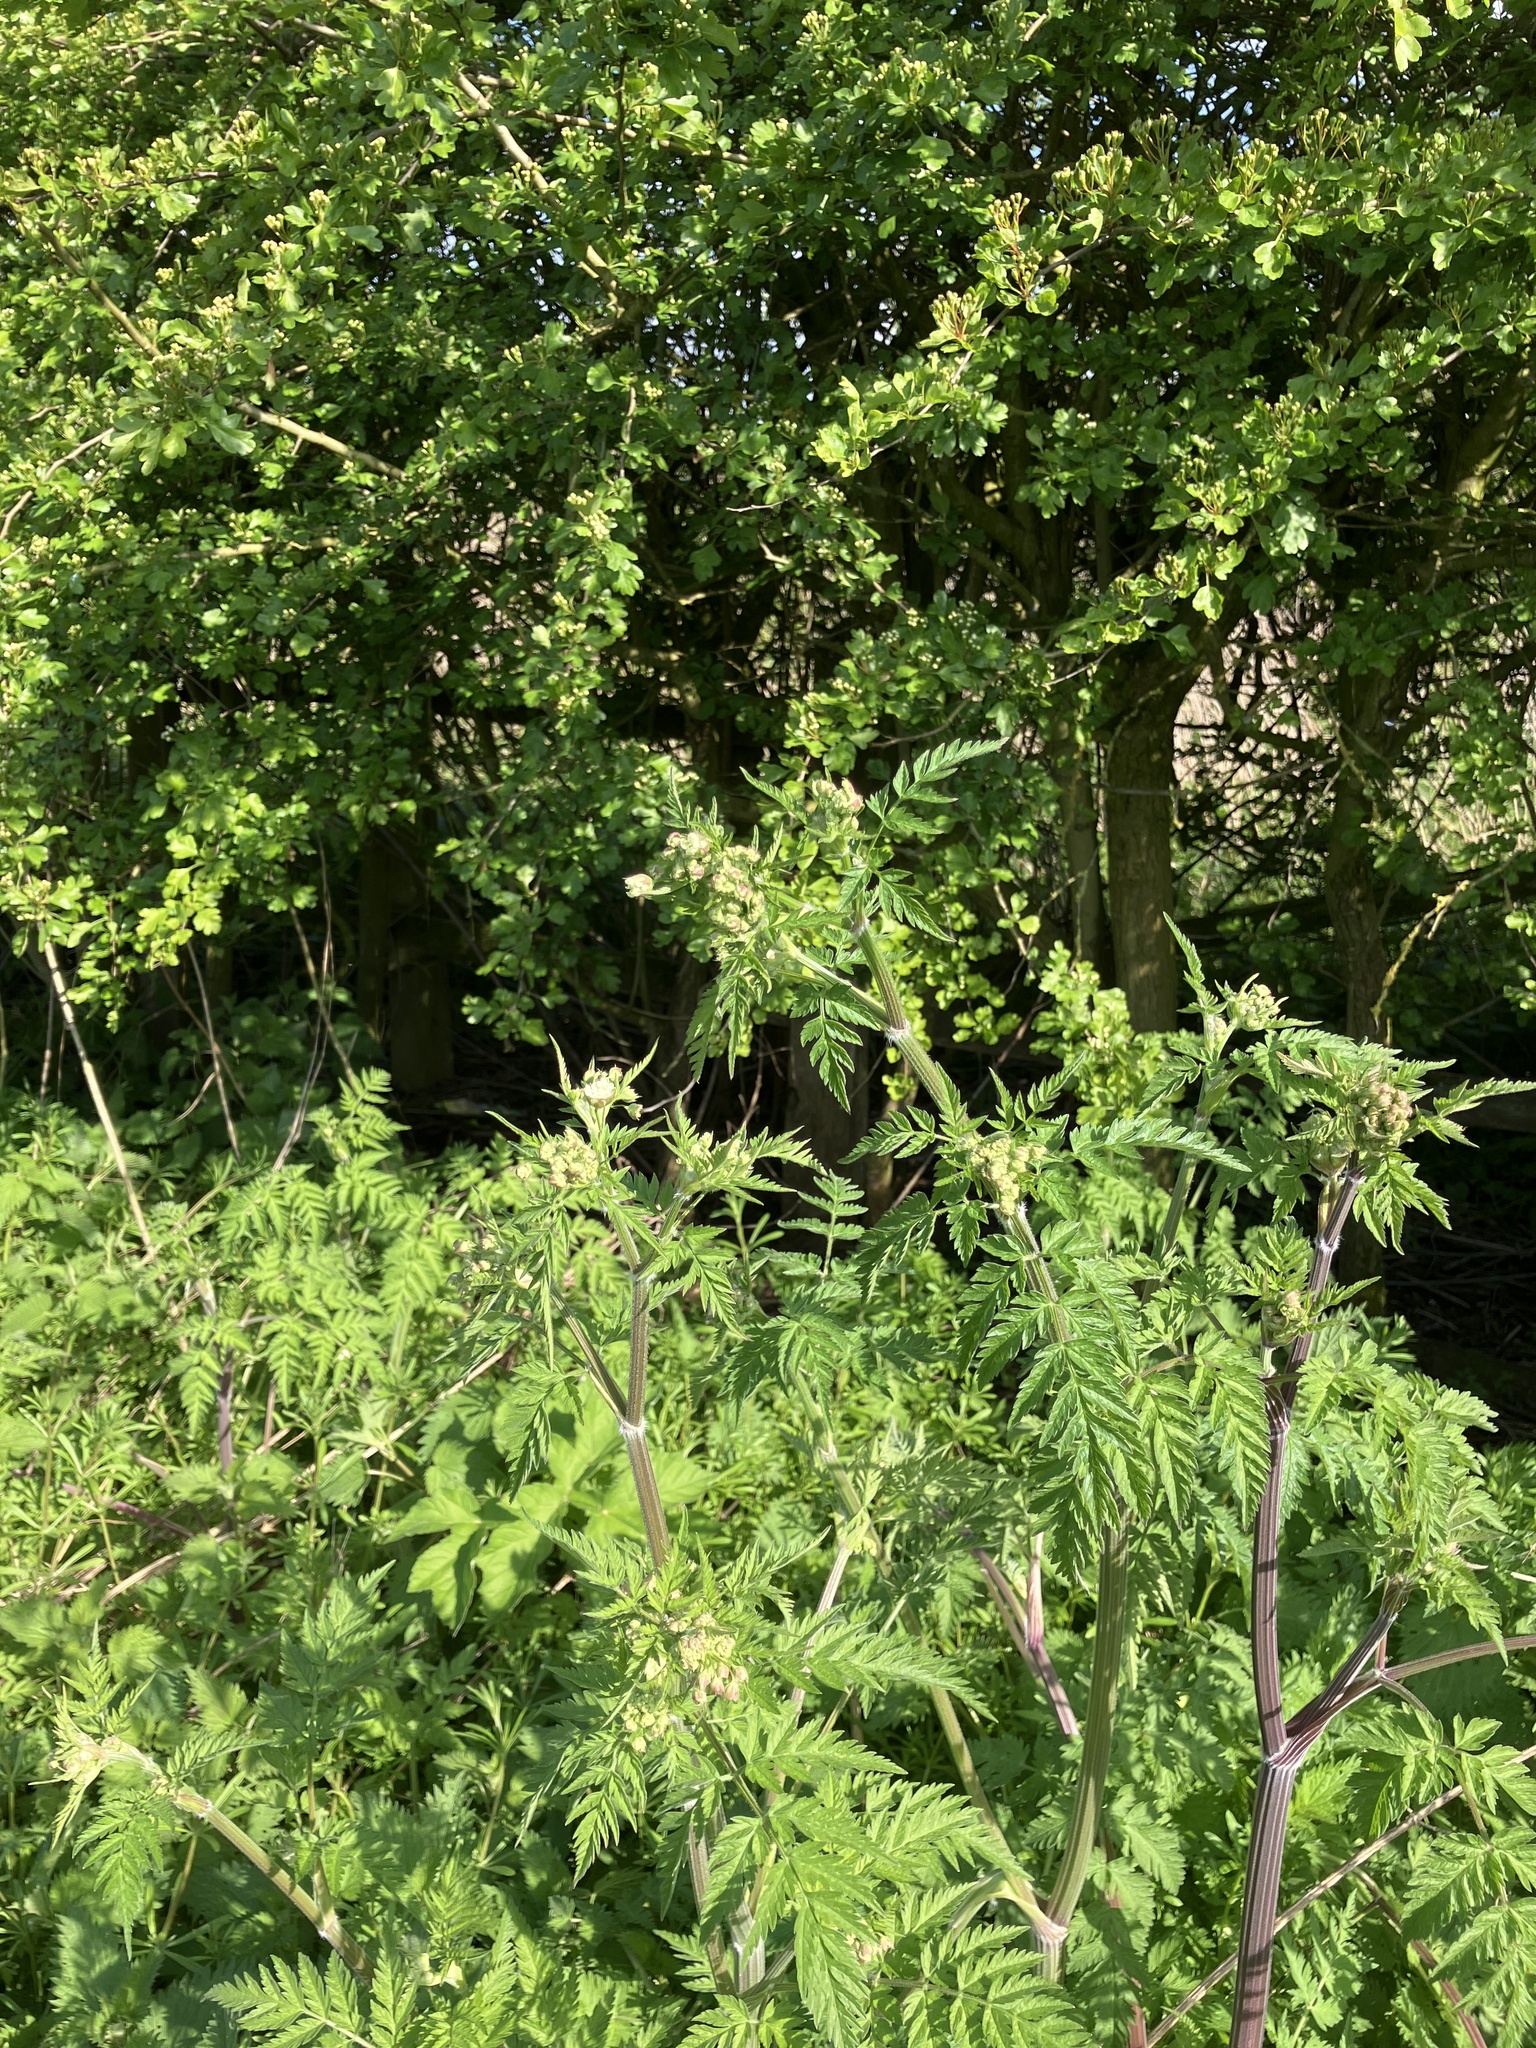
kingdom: Plantae
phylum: Tracheophyta
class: Magnoliopsida
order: Apiales
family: Apiaceae
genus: Anthriscus
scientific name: Anthriscus sylvestris
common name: Cow parsley
